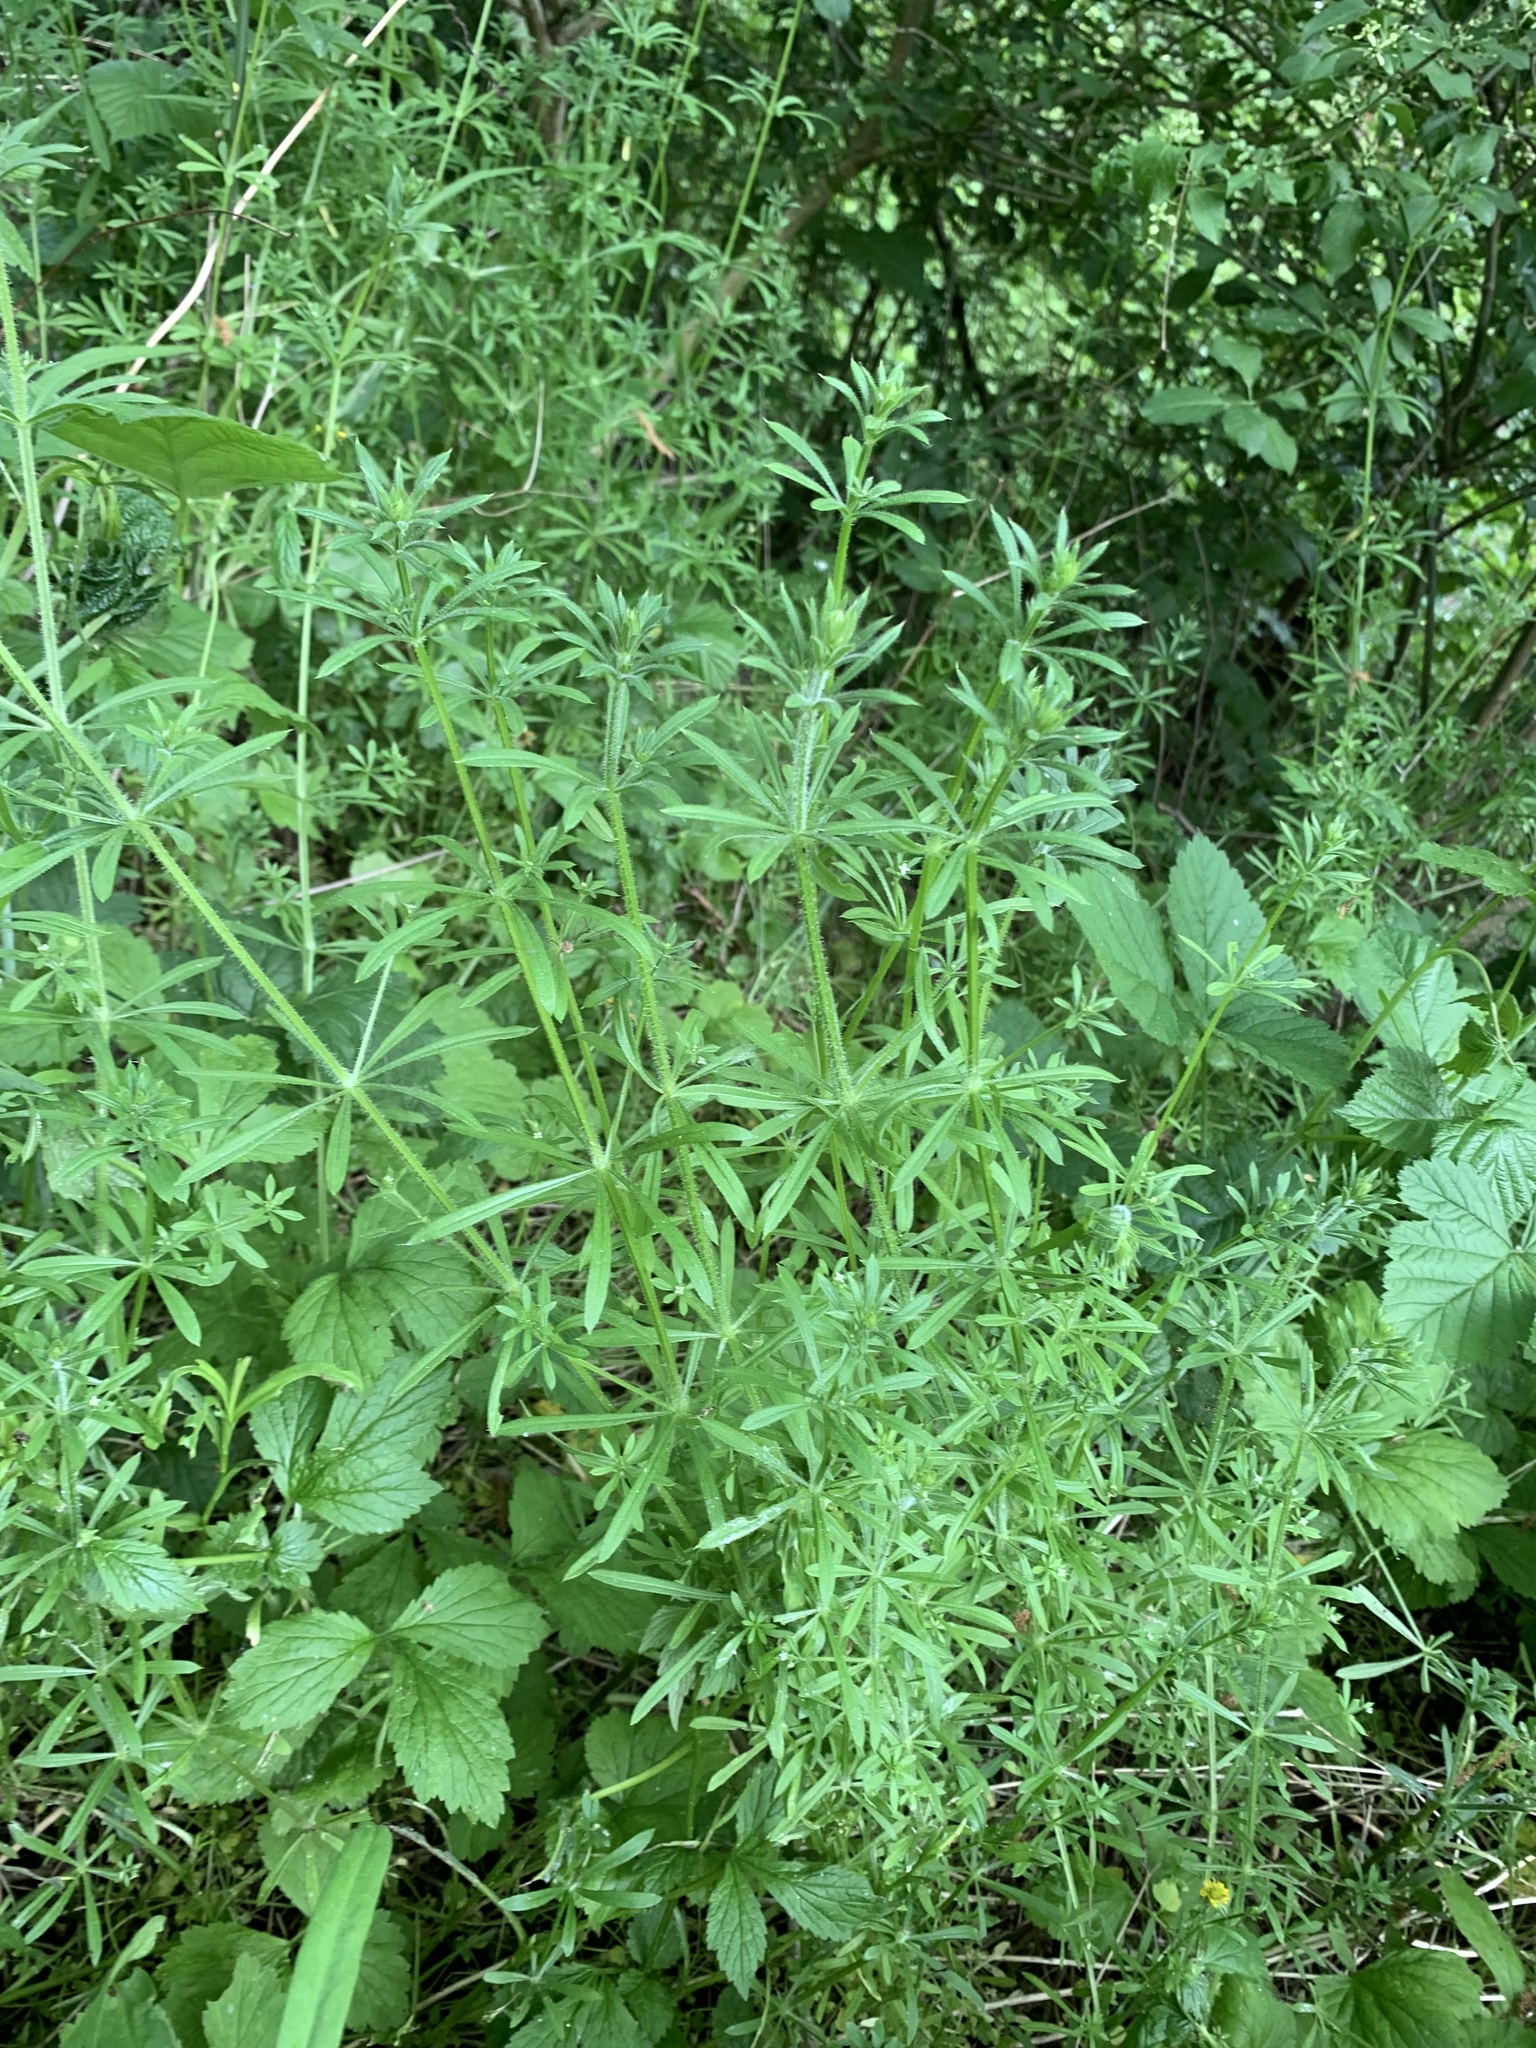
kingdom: Plantae
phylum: Tracheophyta
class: Magnoliopsida
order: Gentianales
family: Rubiaceae
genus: Galium
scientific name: Galium aparine
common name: Cleavers
